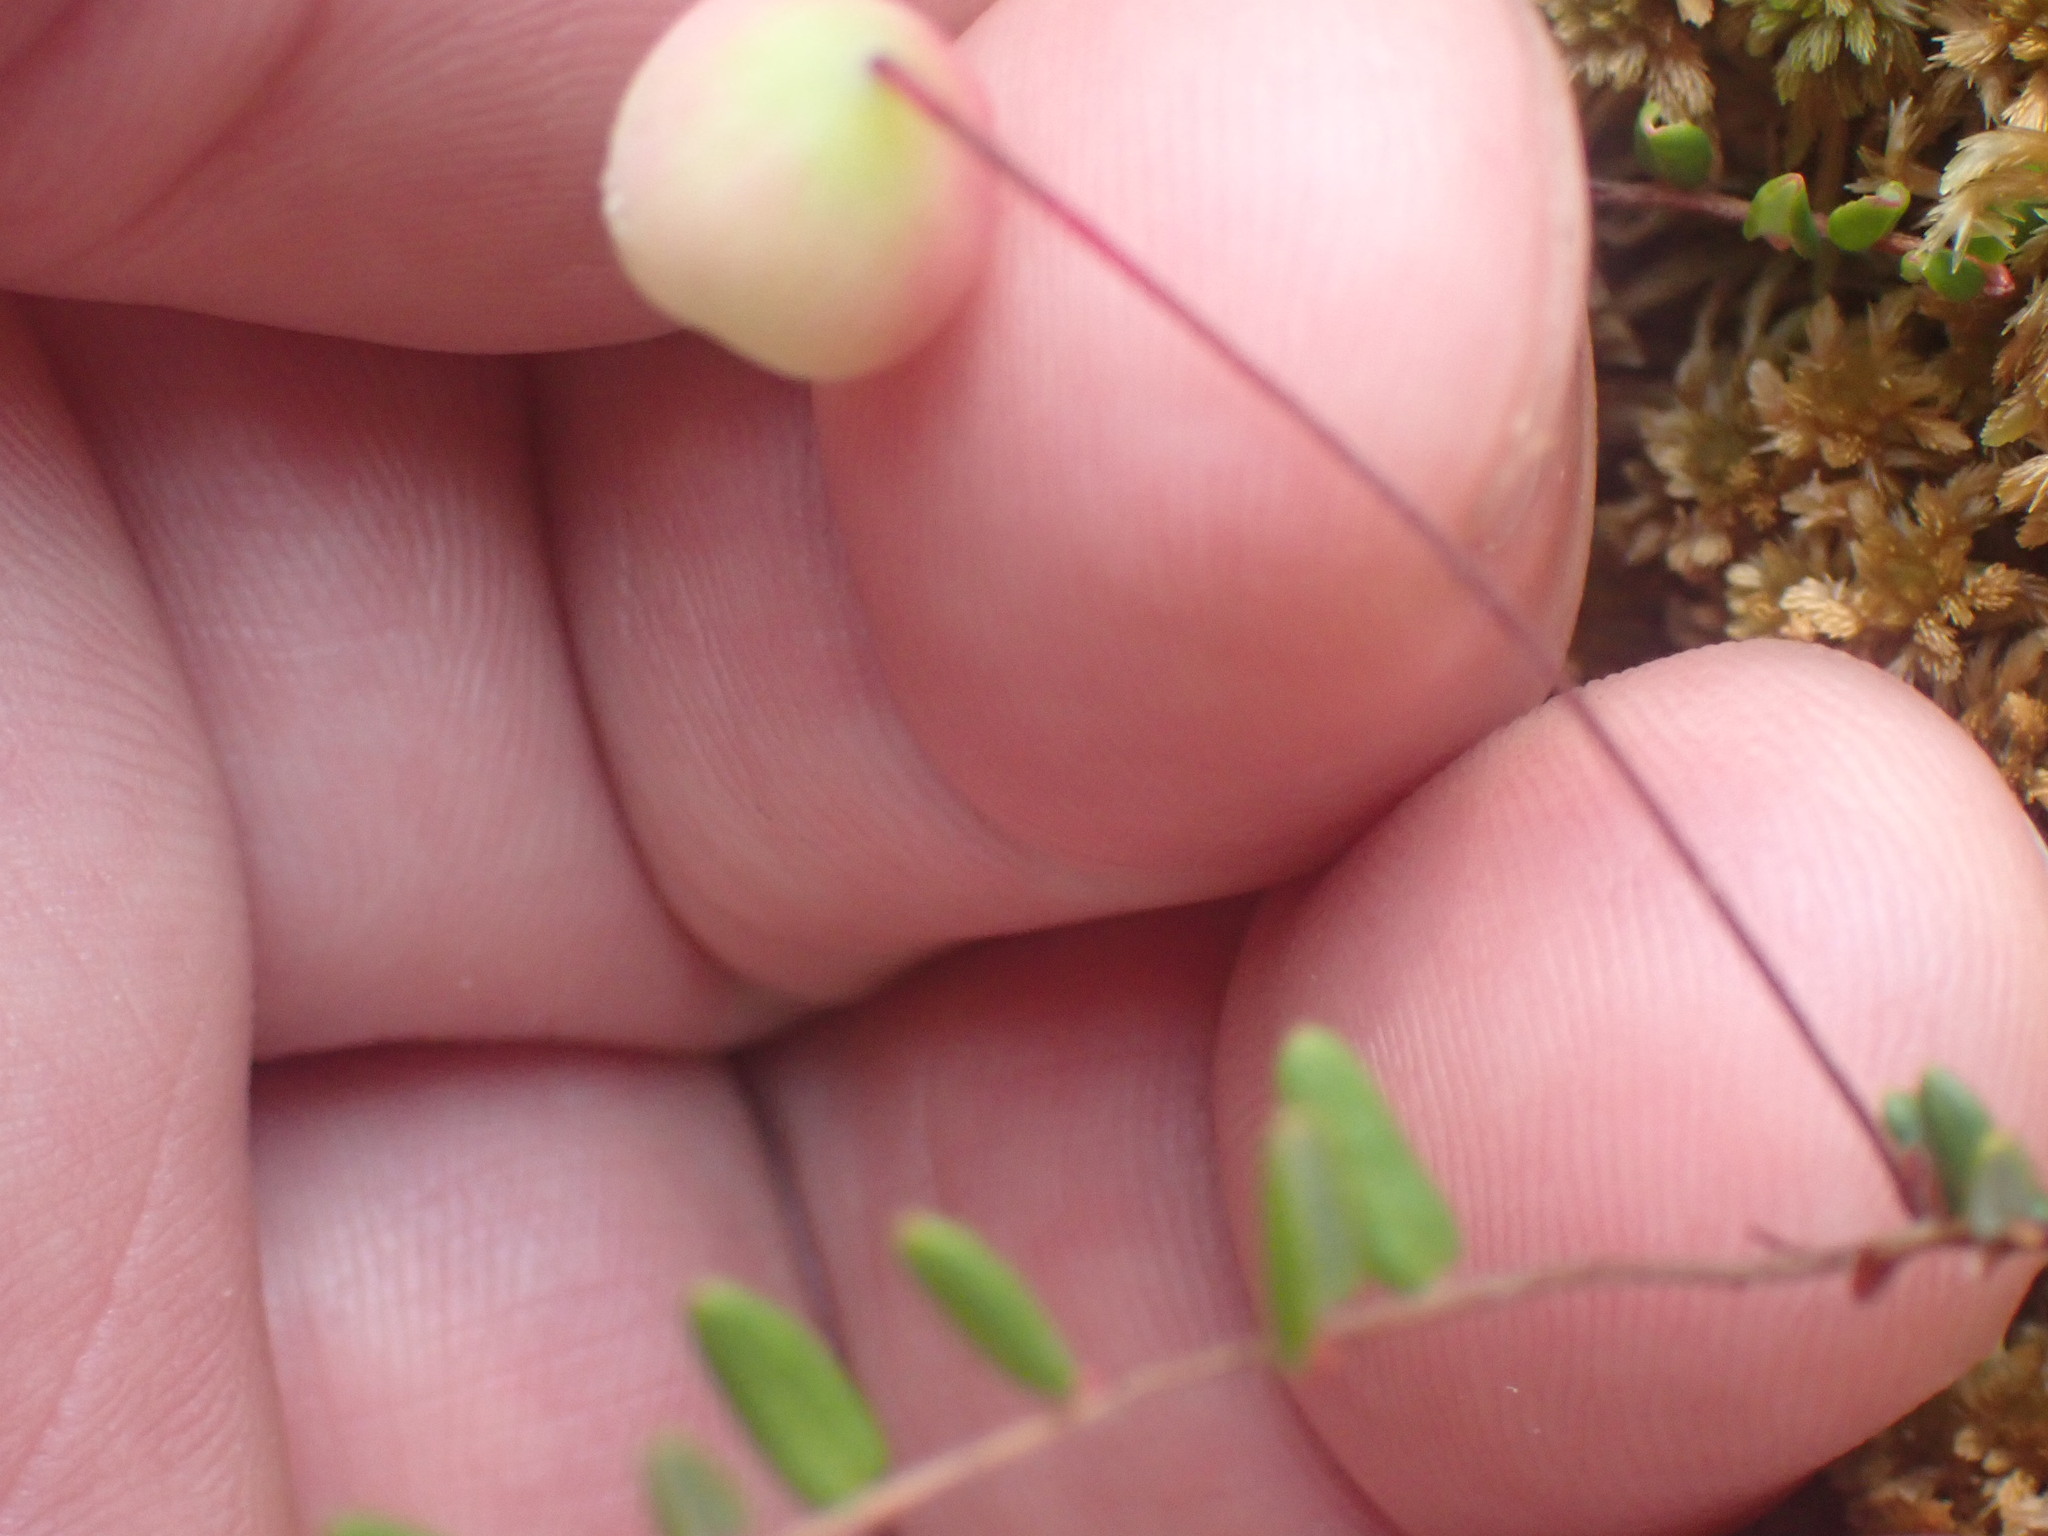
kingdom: Plantae
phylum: Tracheophyta
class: Magnoliopsida
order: Ericales
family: Ericaceae
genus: Vaccinium
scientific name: Vaccinium oxycoccos
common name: Cranberry
